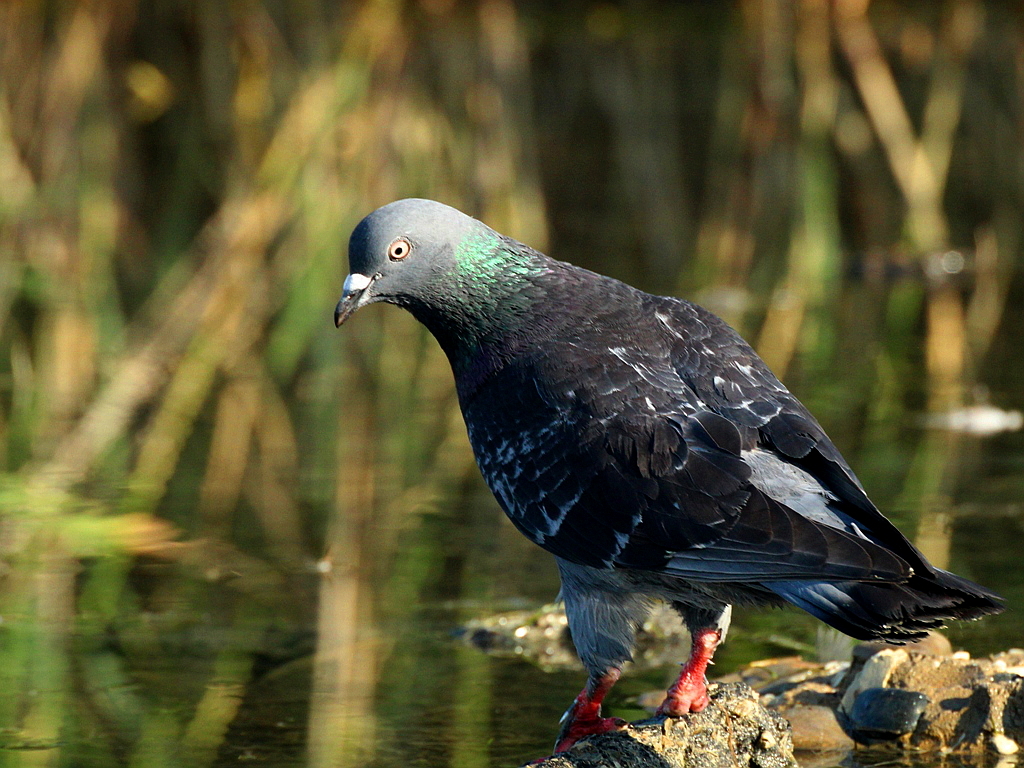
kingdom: Animalia
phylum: Chordata
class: Aves
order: Columbiformes
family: Columbidae
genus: Columba
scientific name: Columba livia
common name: Rock pigeon
